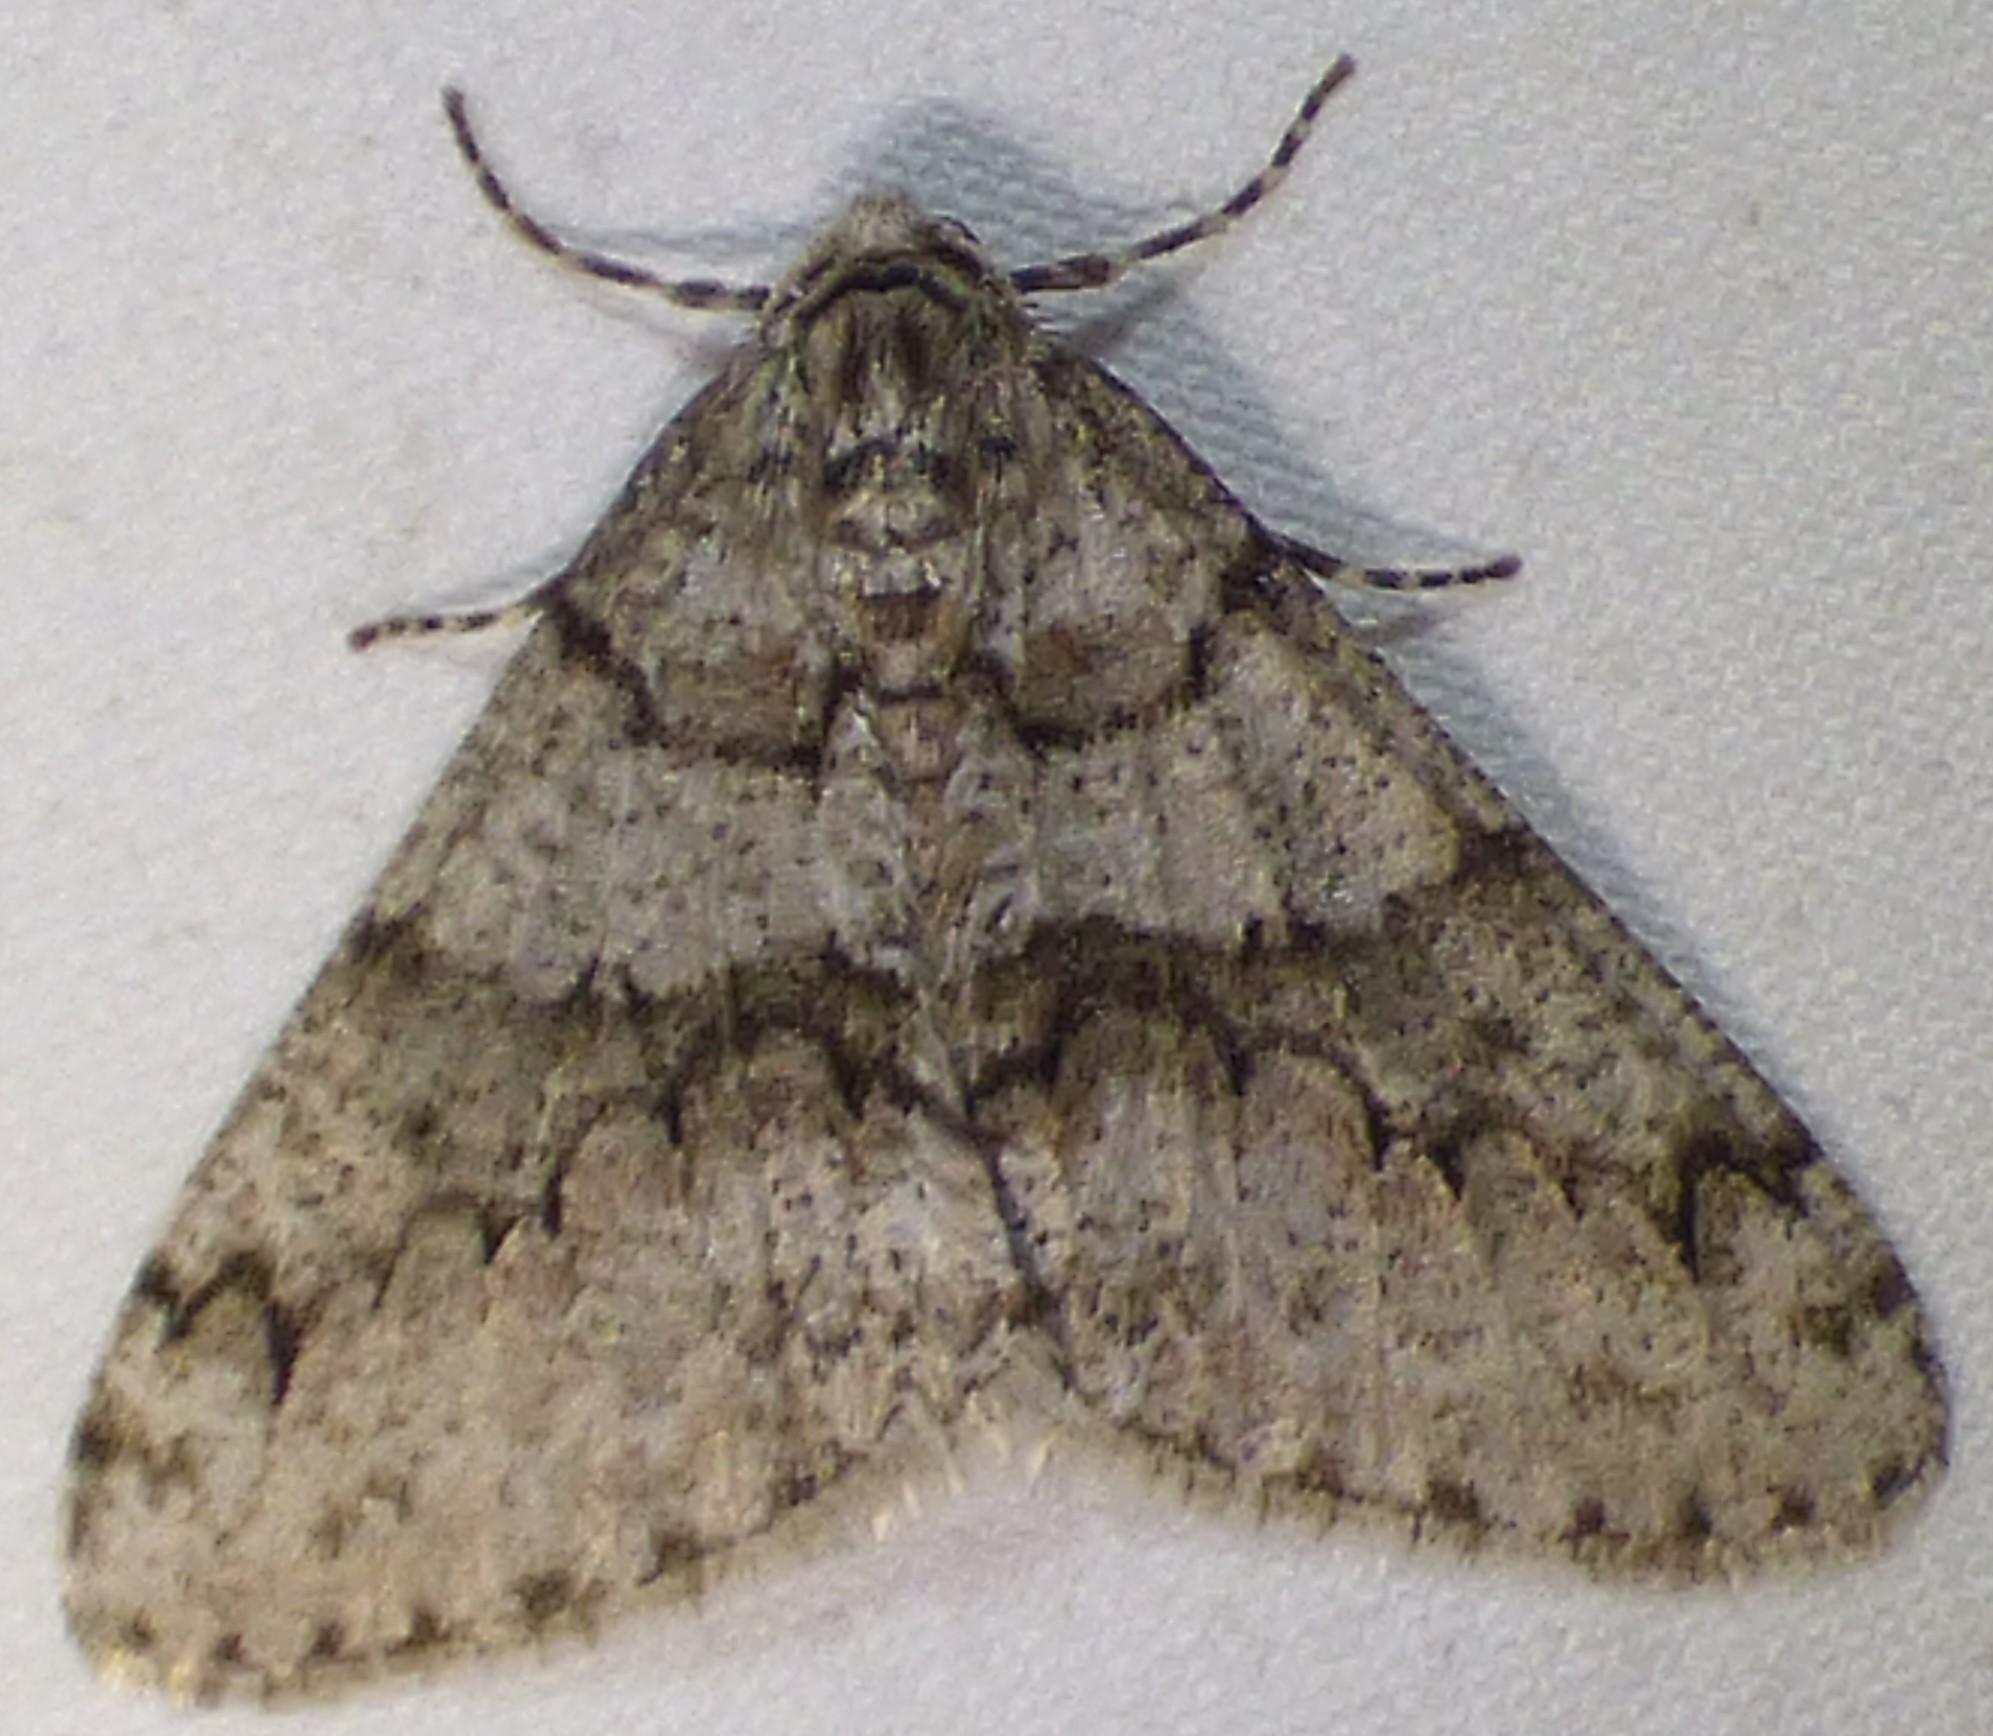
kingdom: Animalia
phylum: Arthropoda
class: Insecta
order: Lepidoptera
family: Geometridae
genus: Phigalia
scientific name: Phigalia denticulata
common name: Toothed phigalia
